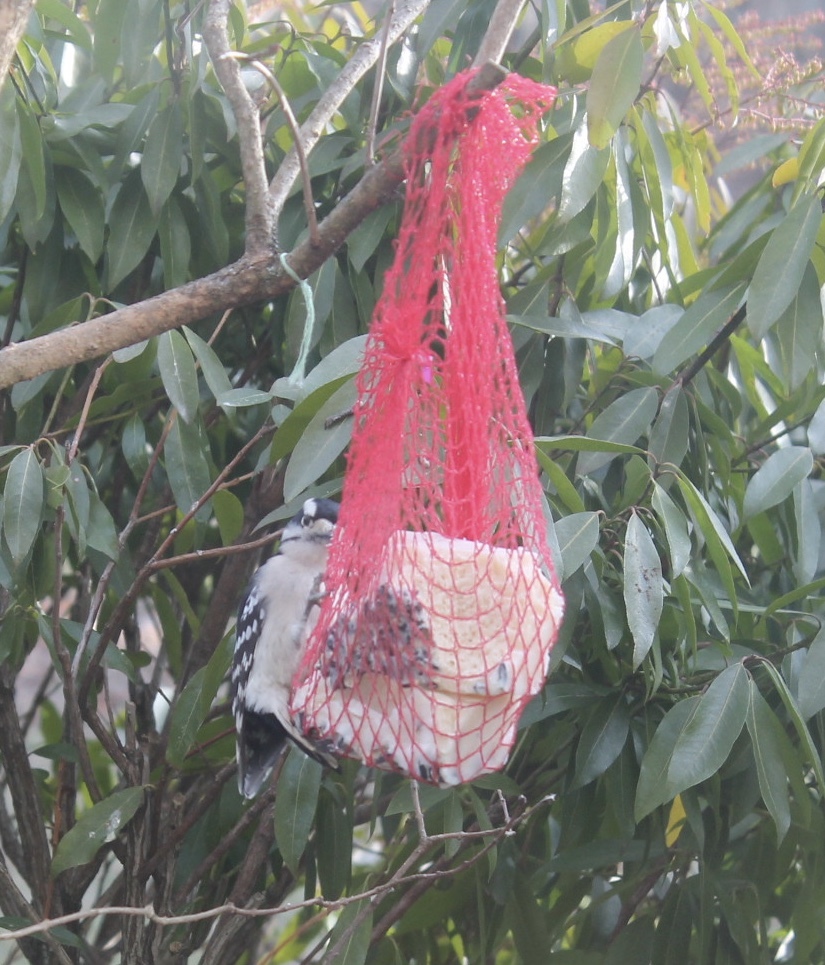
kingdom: Animalia
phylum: Chordata
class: Aves
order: Piciformes
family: Picidae
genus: Dryobates
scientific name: Dryobates pubescens
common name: Downy woodpecker
